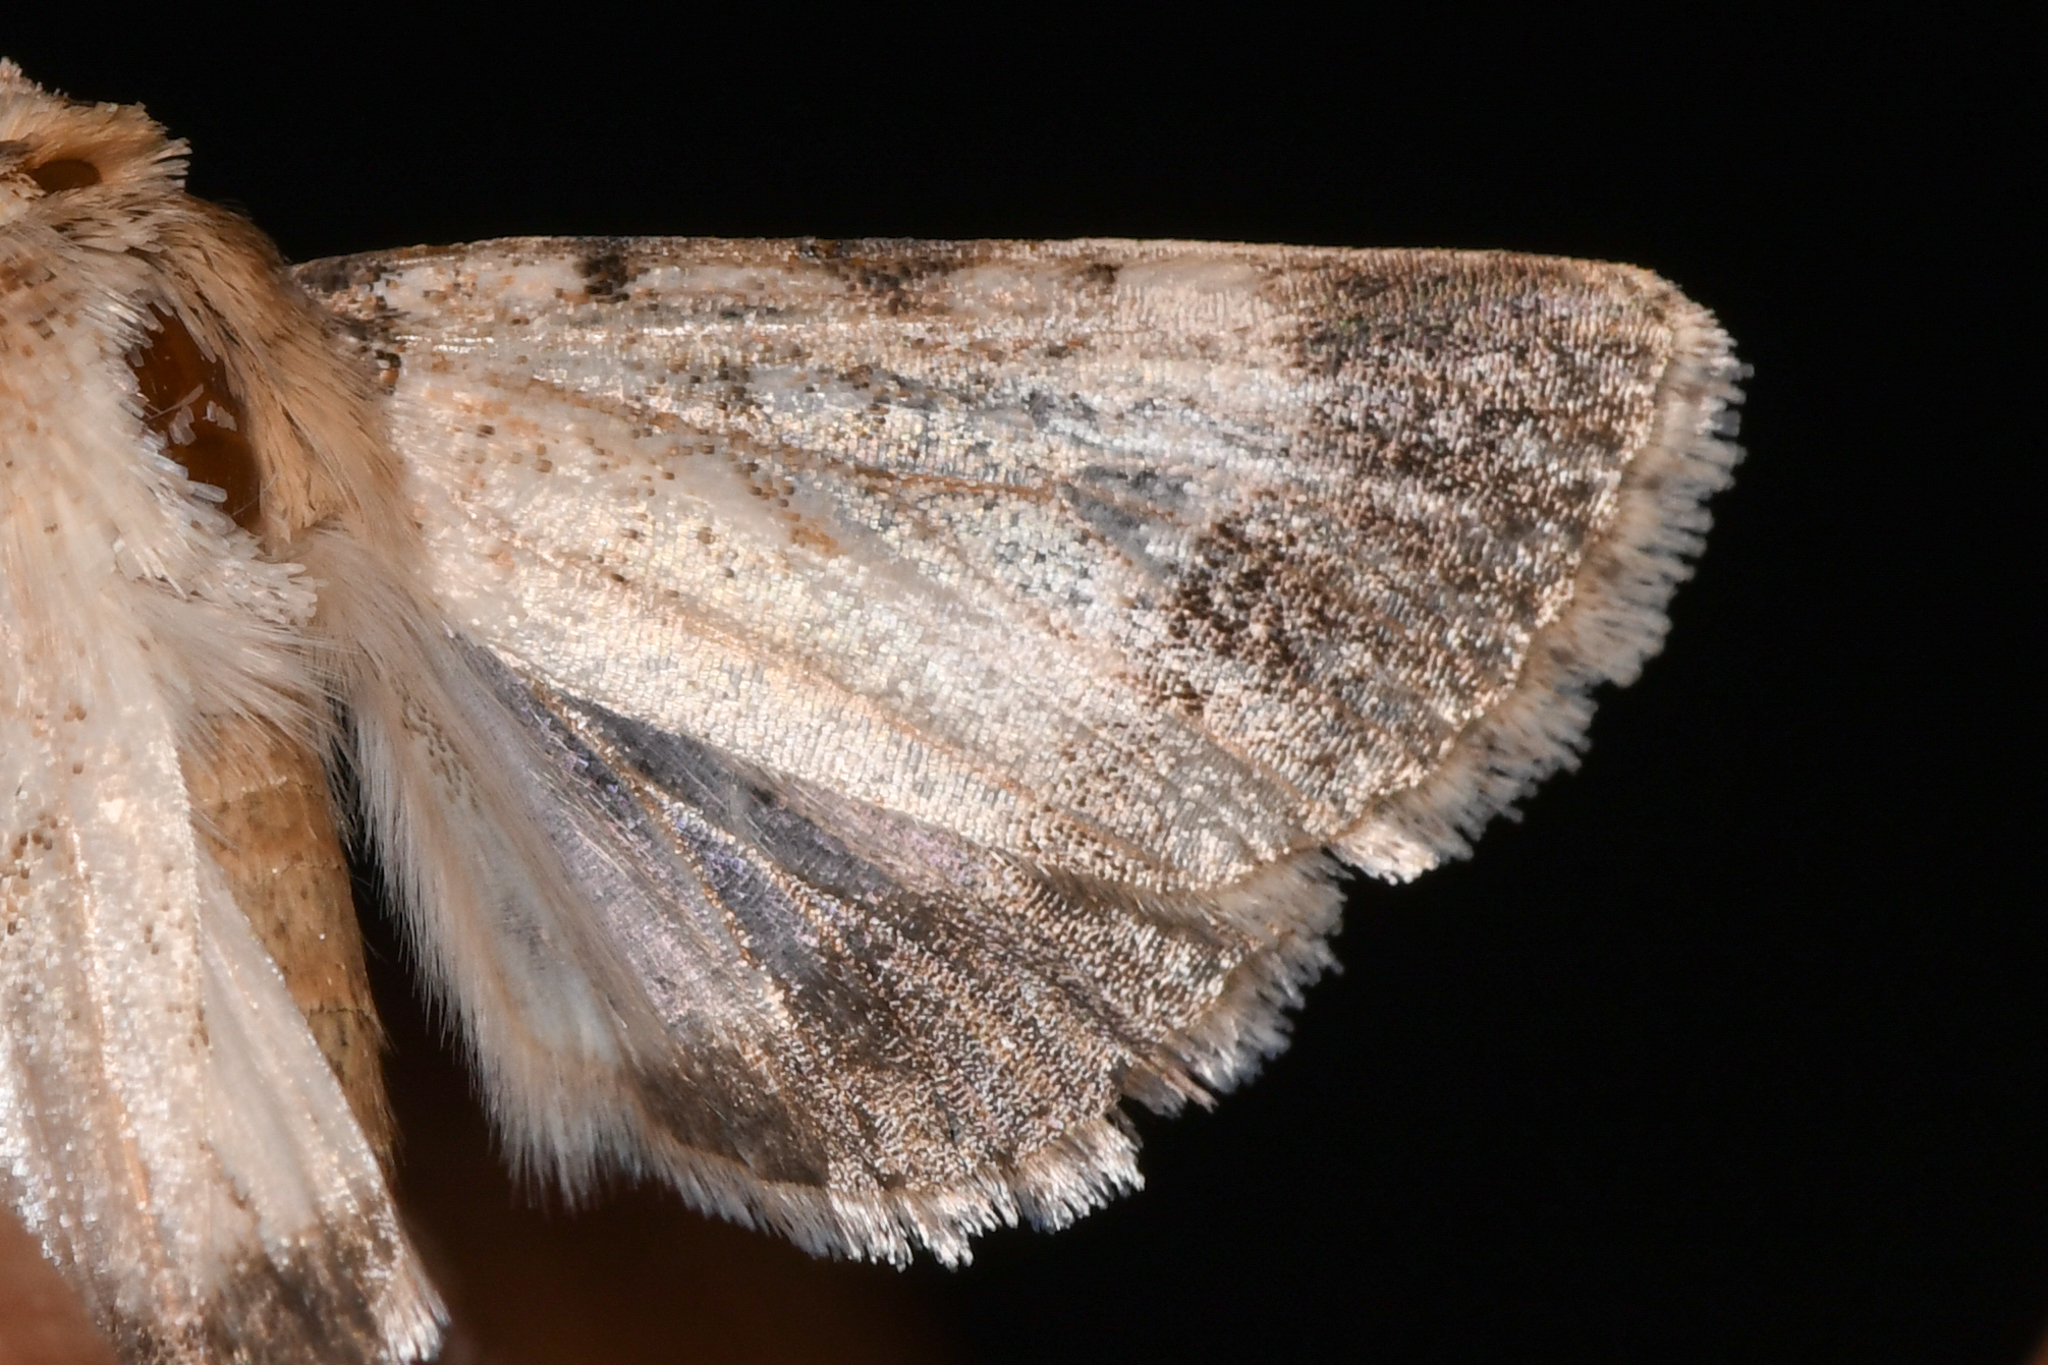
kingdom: Animalia
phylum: Arthropoda
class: Insecta
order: Lepidoptera
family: Noctuidae
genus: Sympistis
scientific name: Sympistis deceptiva
